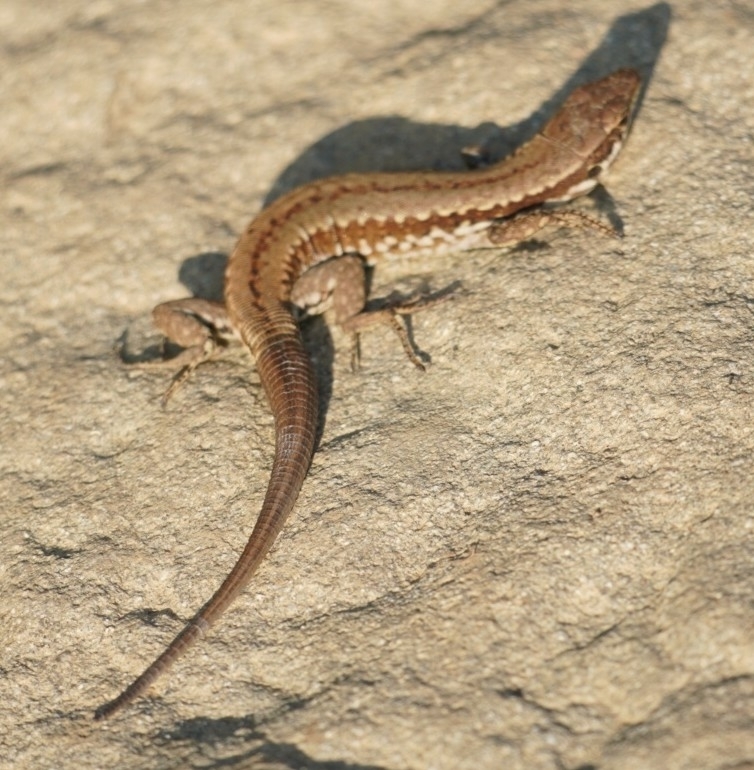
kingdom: Animalia
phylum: Chordata
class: Squamata
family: Lacertidae
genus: Podarcis
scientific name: Podarcis muralis
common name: Common wall lizard
